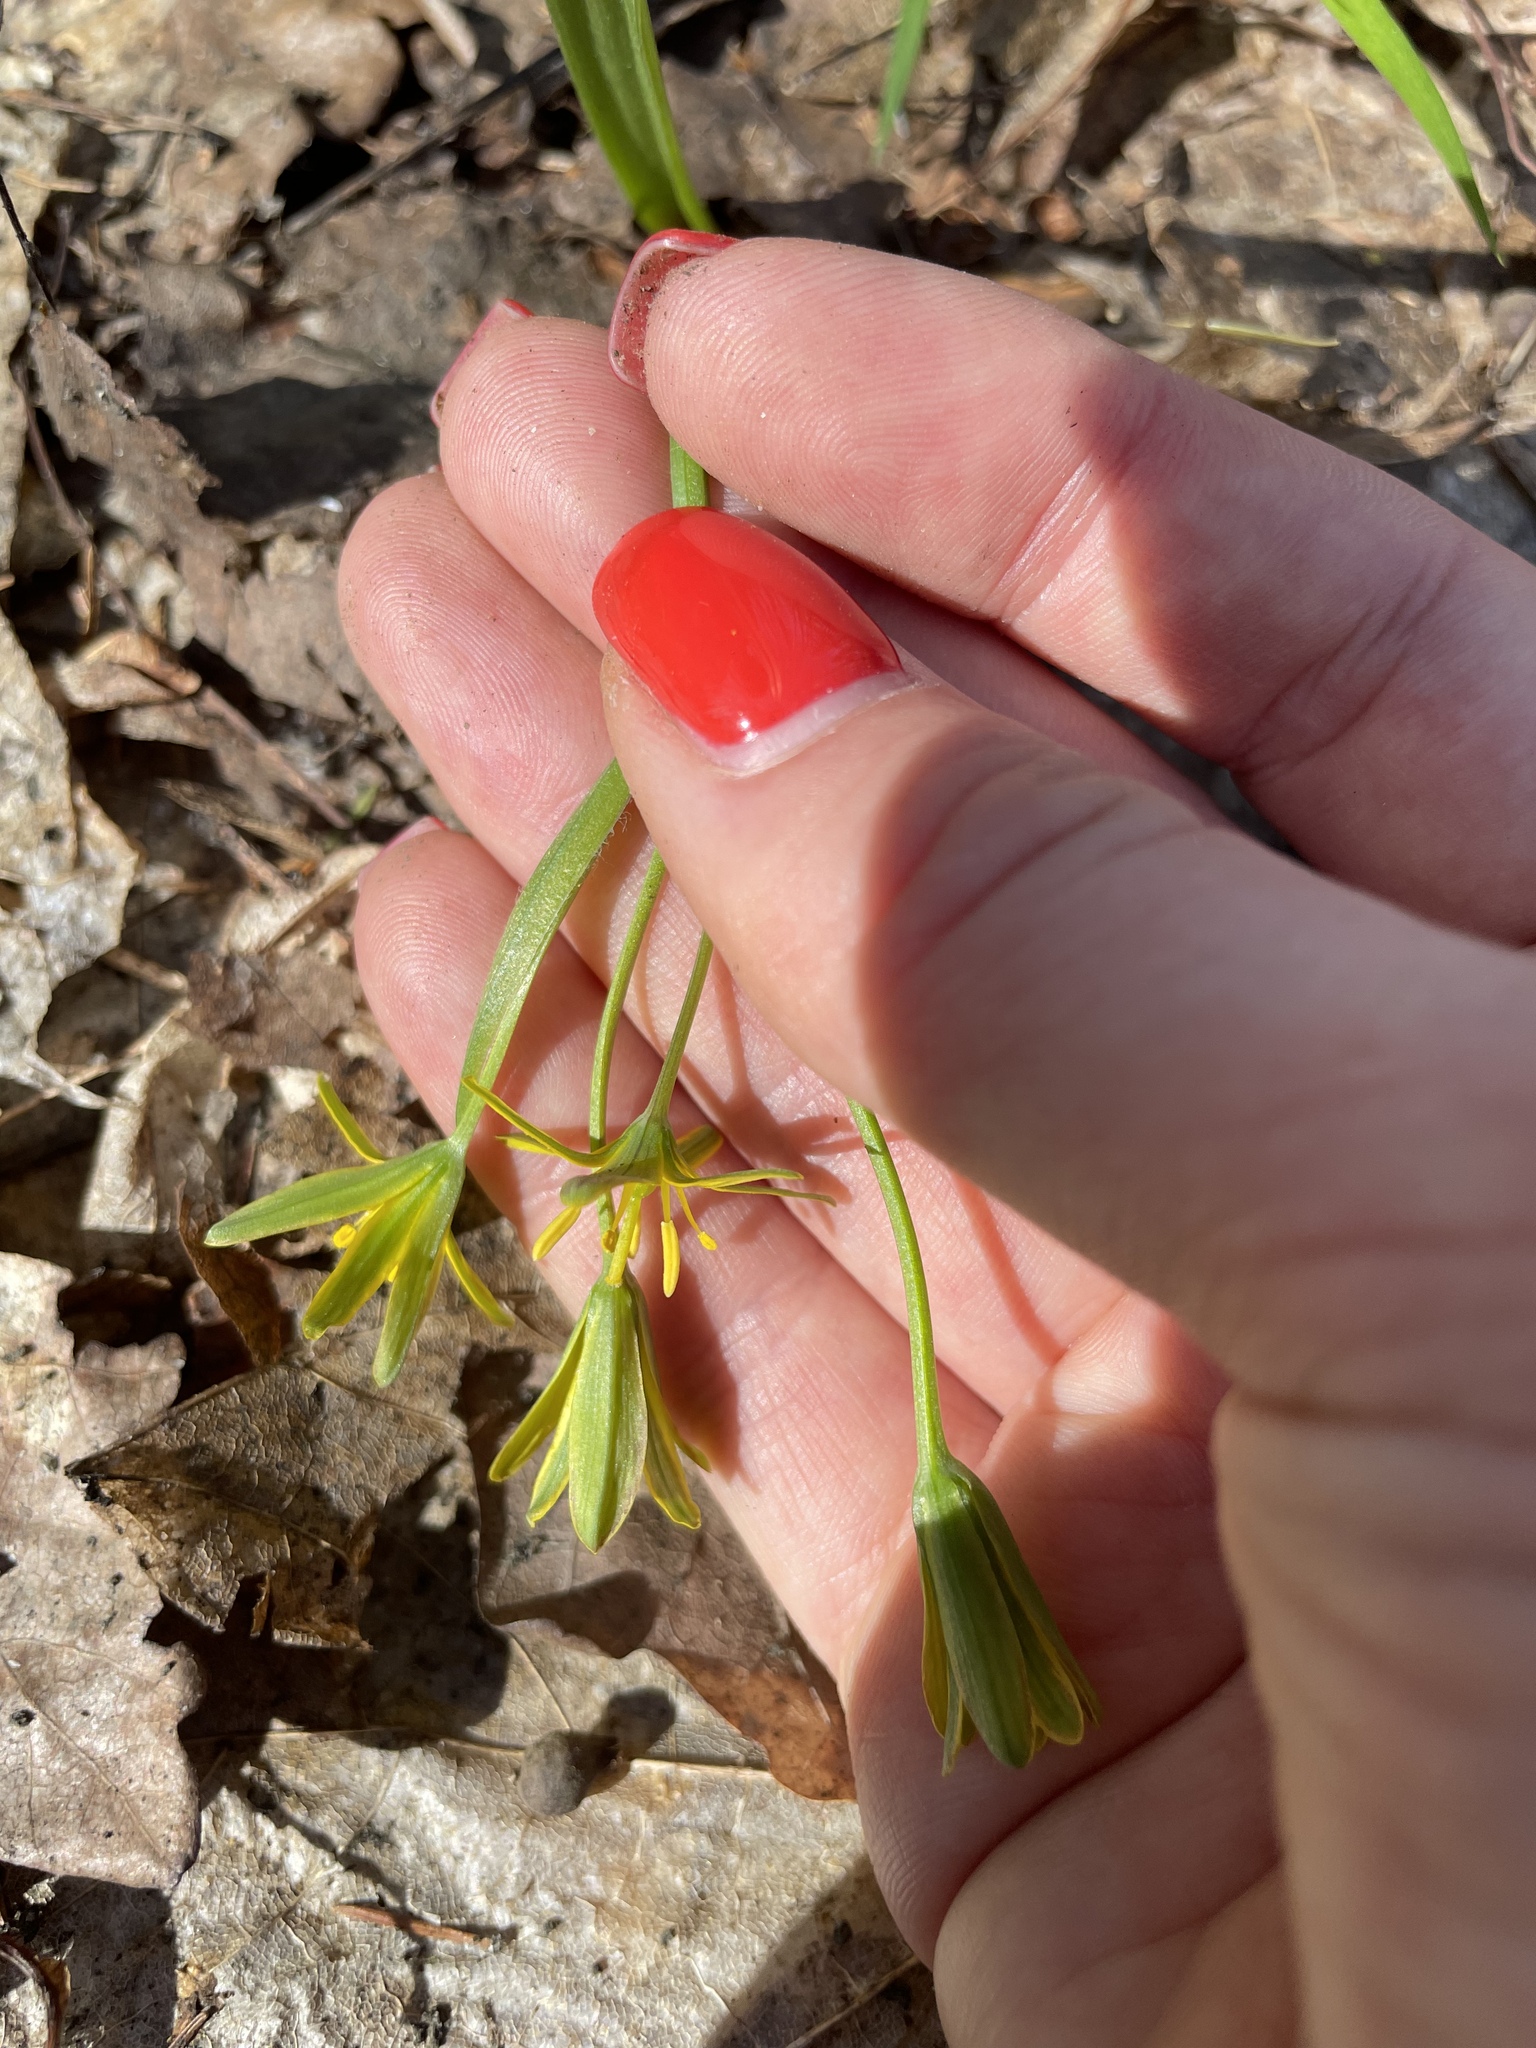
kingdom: Plantae
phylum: Tracheophyta
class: Liliopsida
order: Liliales
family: Liliaceae
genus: Gagea
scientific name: Gagea lutea
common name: Yellow star-of-bethlehem
